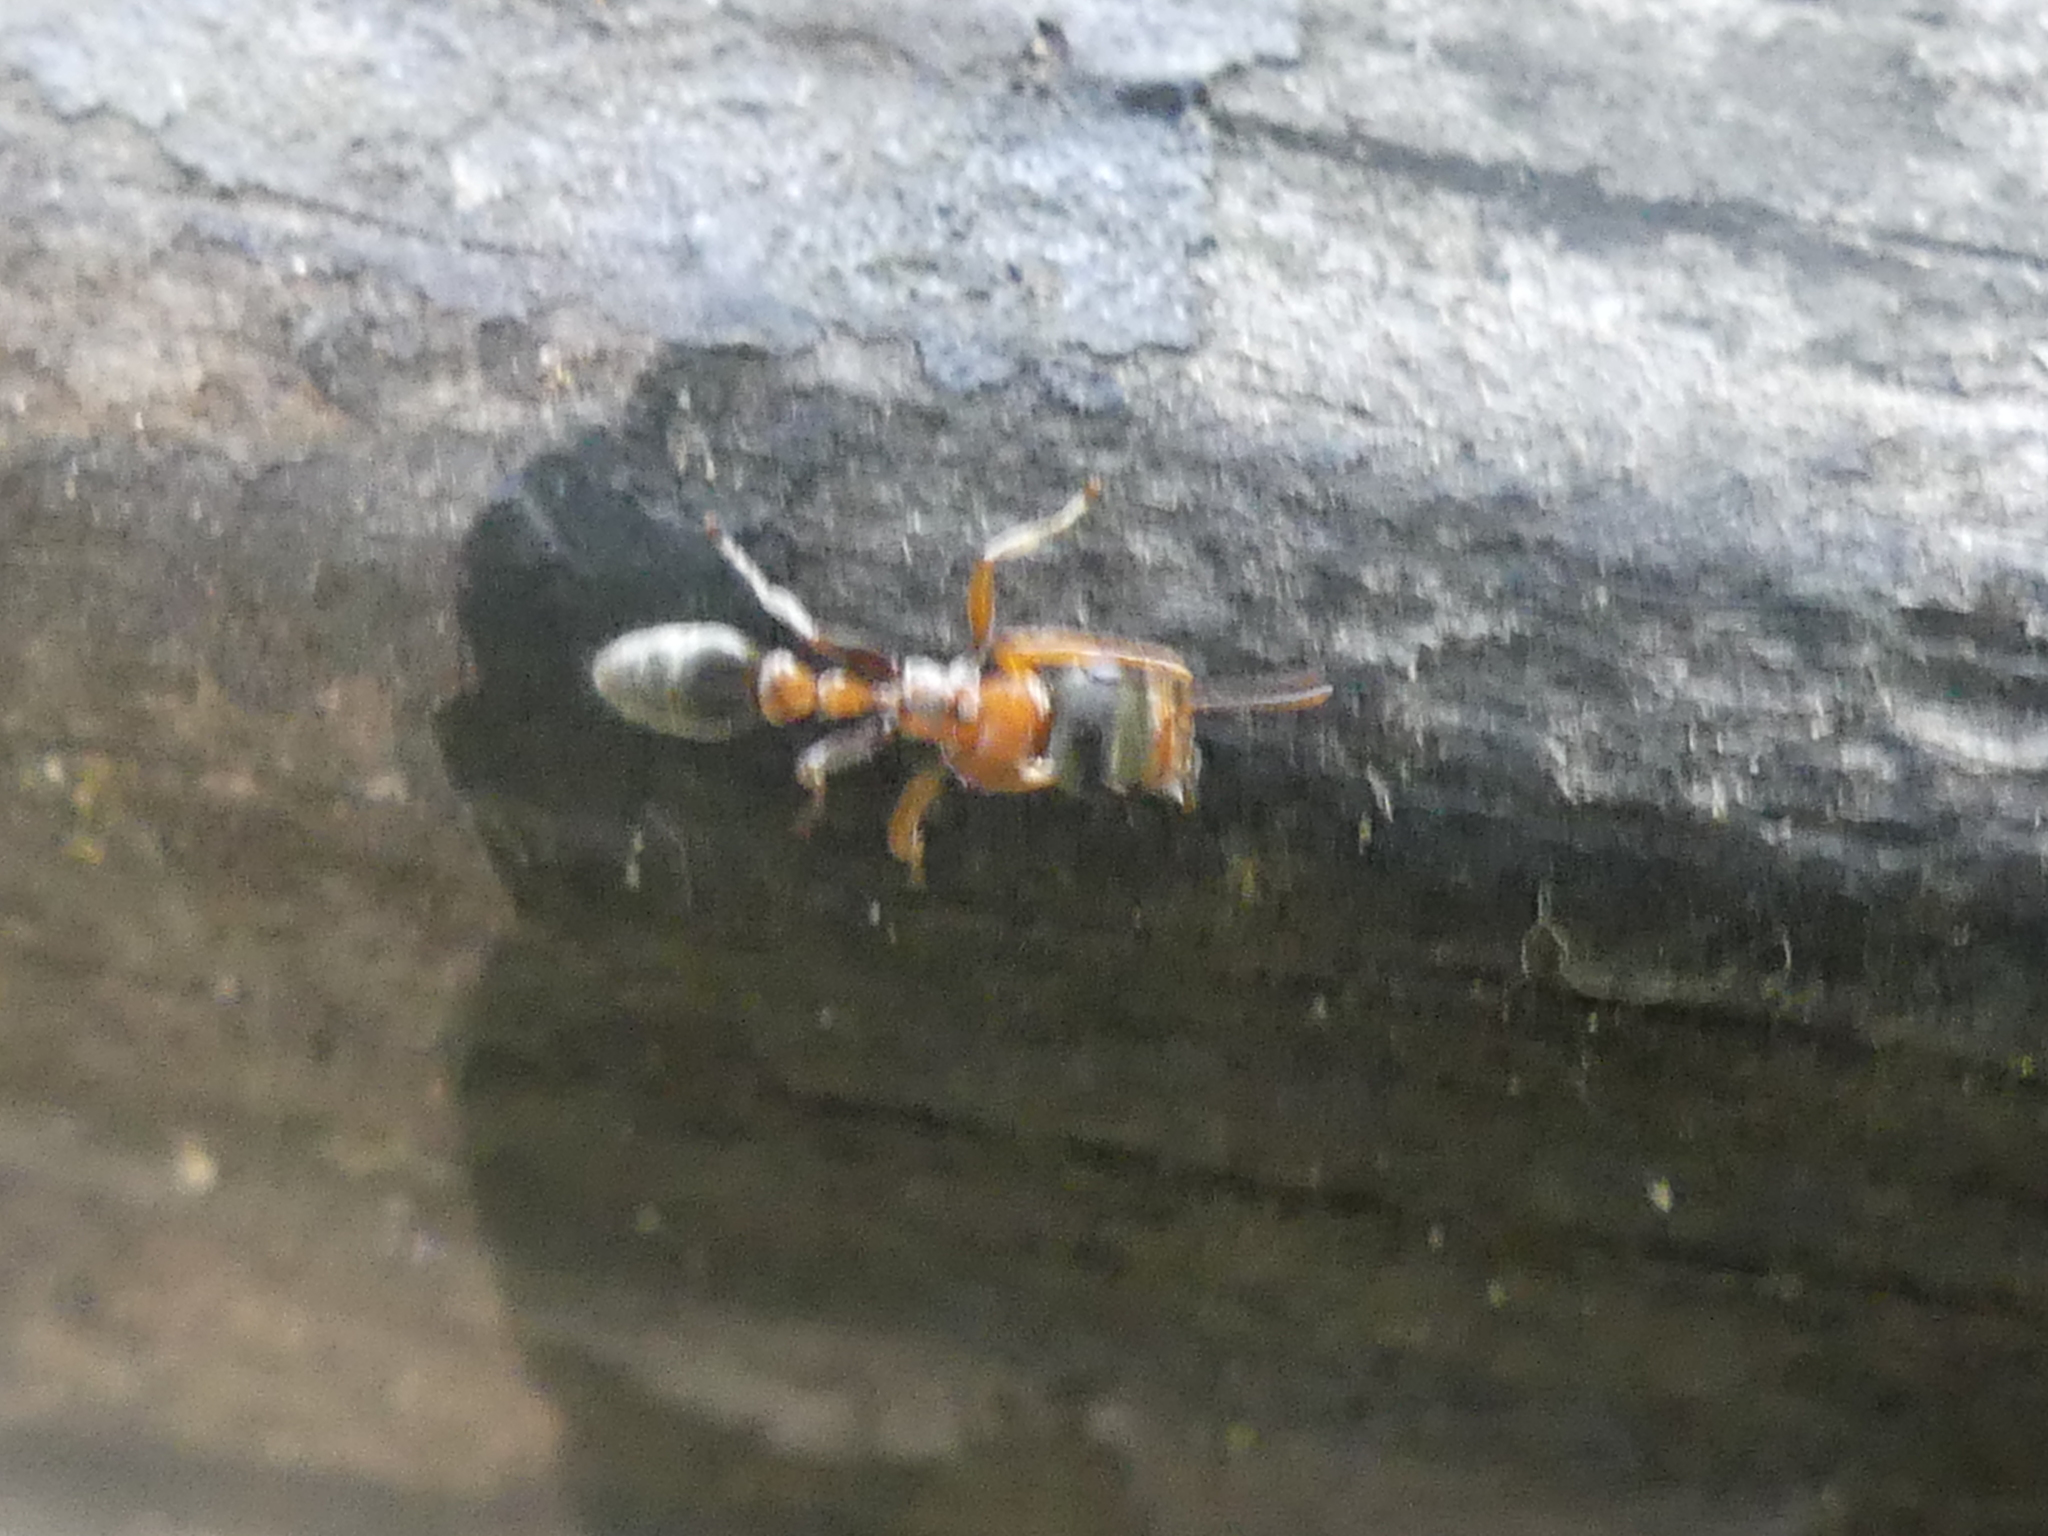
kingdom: Animalia
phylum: Arthropoda
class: Insecta
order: Hymenoptera
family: Formicidae
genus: Pseudomyrmex
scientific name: Pseudomyrmex gracilis
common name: Graceful twig ant
